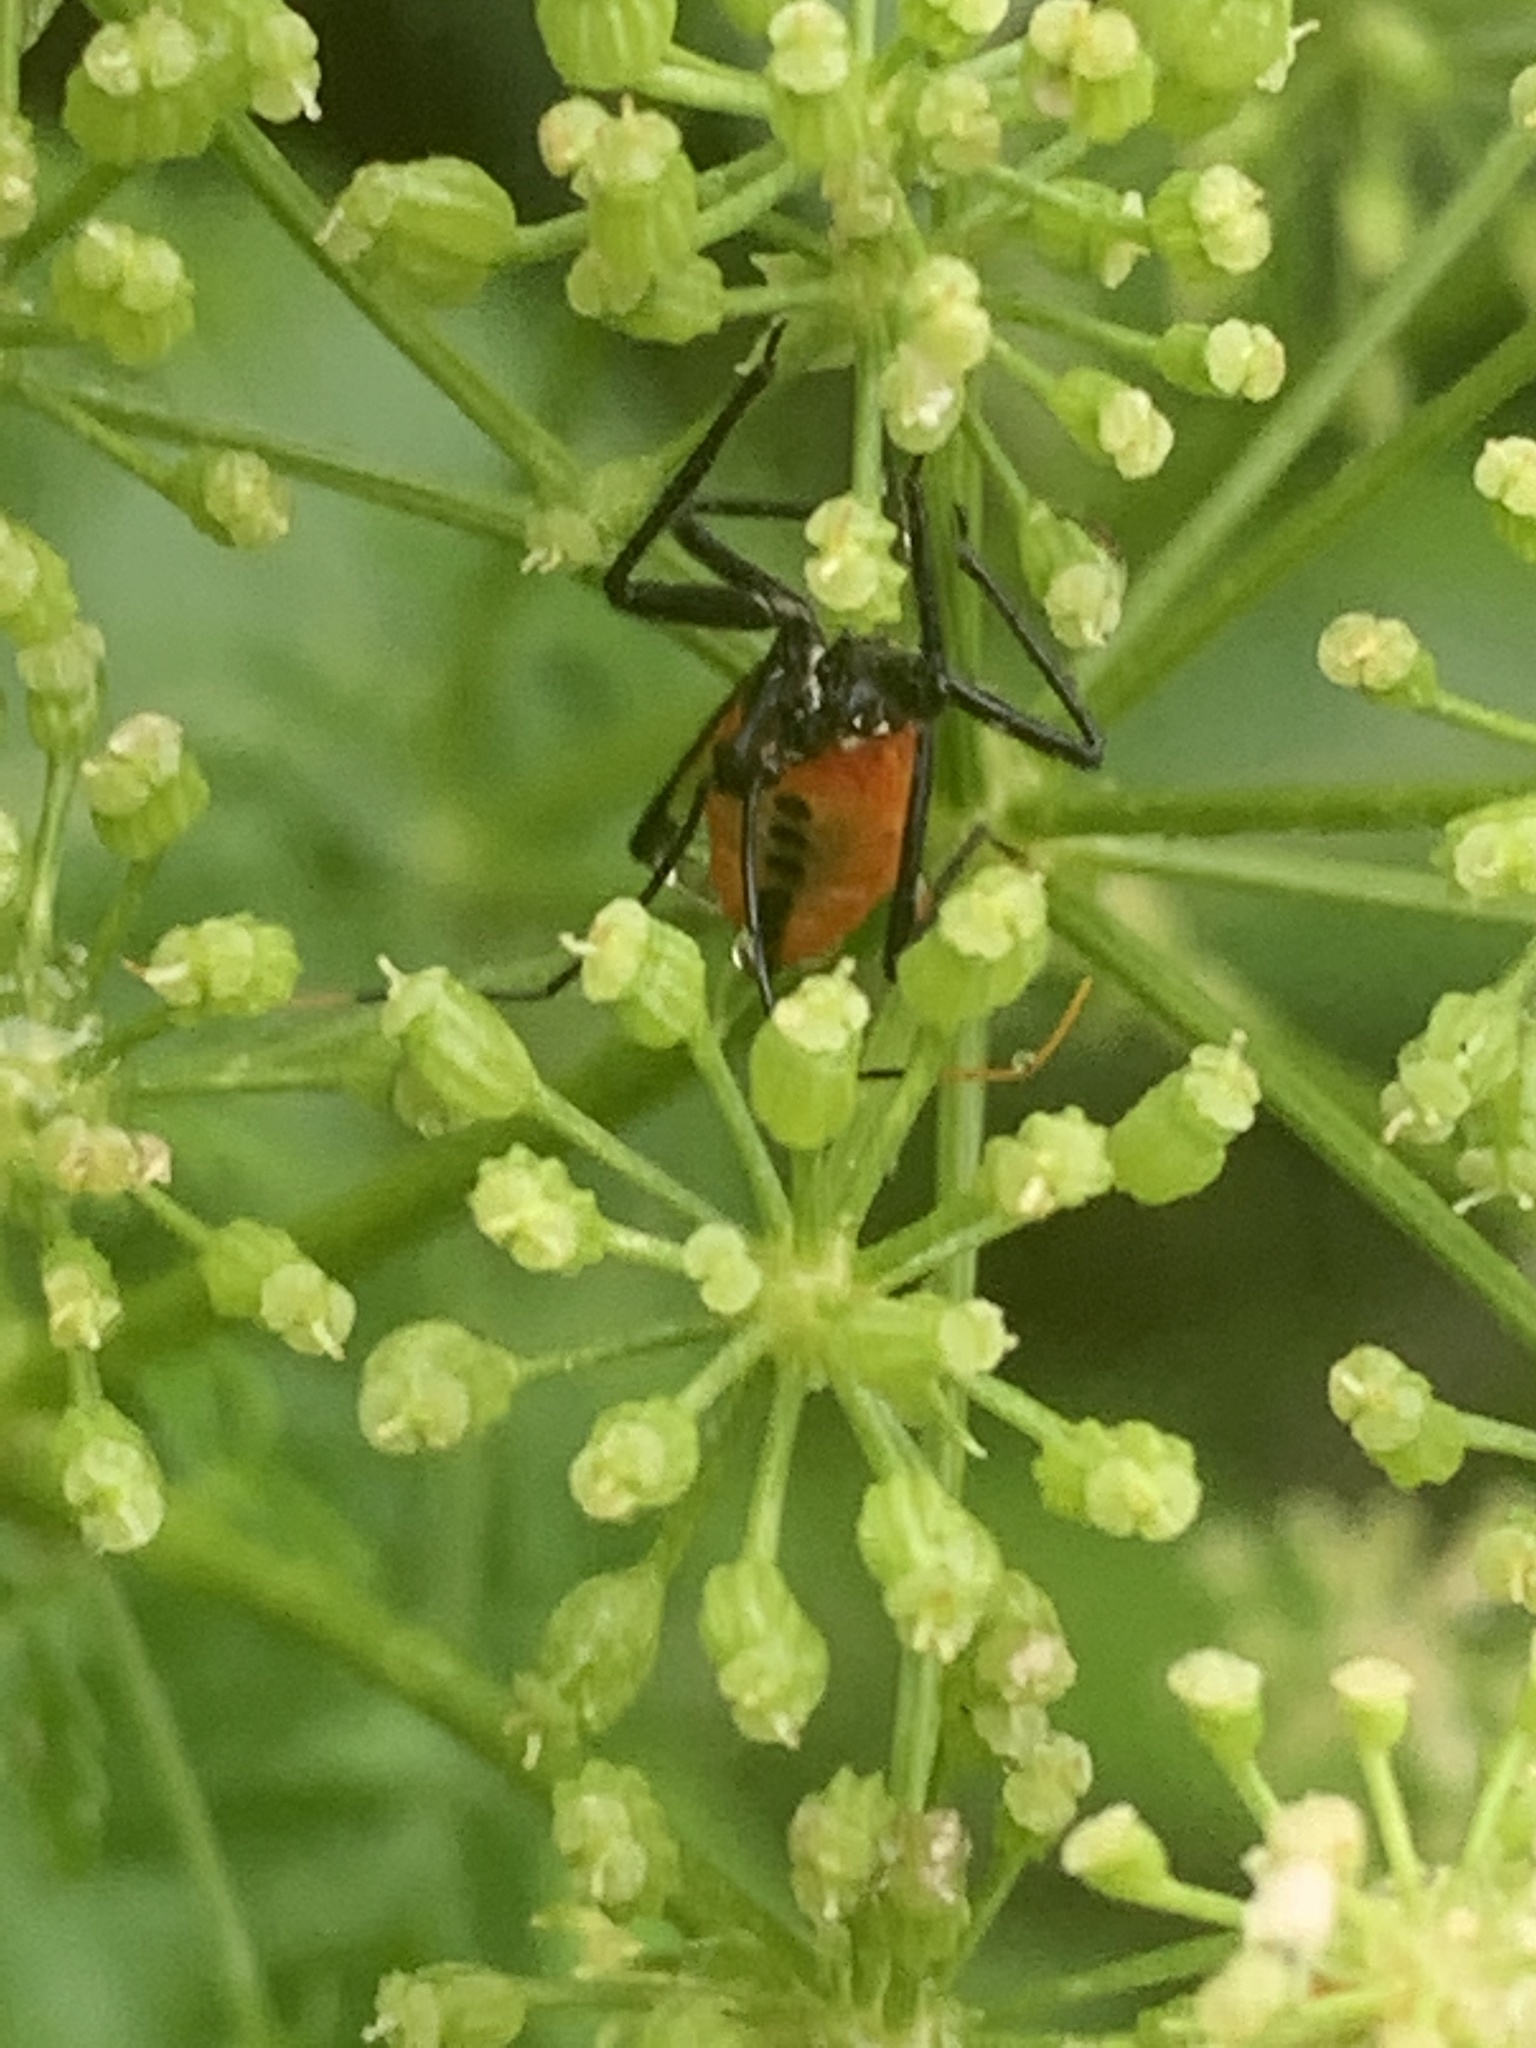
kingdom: Animalia
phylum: Arthropoda
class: Insecta
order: Hemiptera
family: Reduviidae
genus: Arilus
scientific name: Arilus cristatus
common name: North american wheel bug
